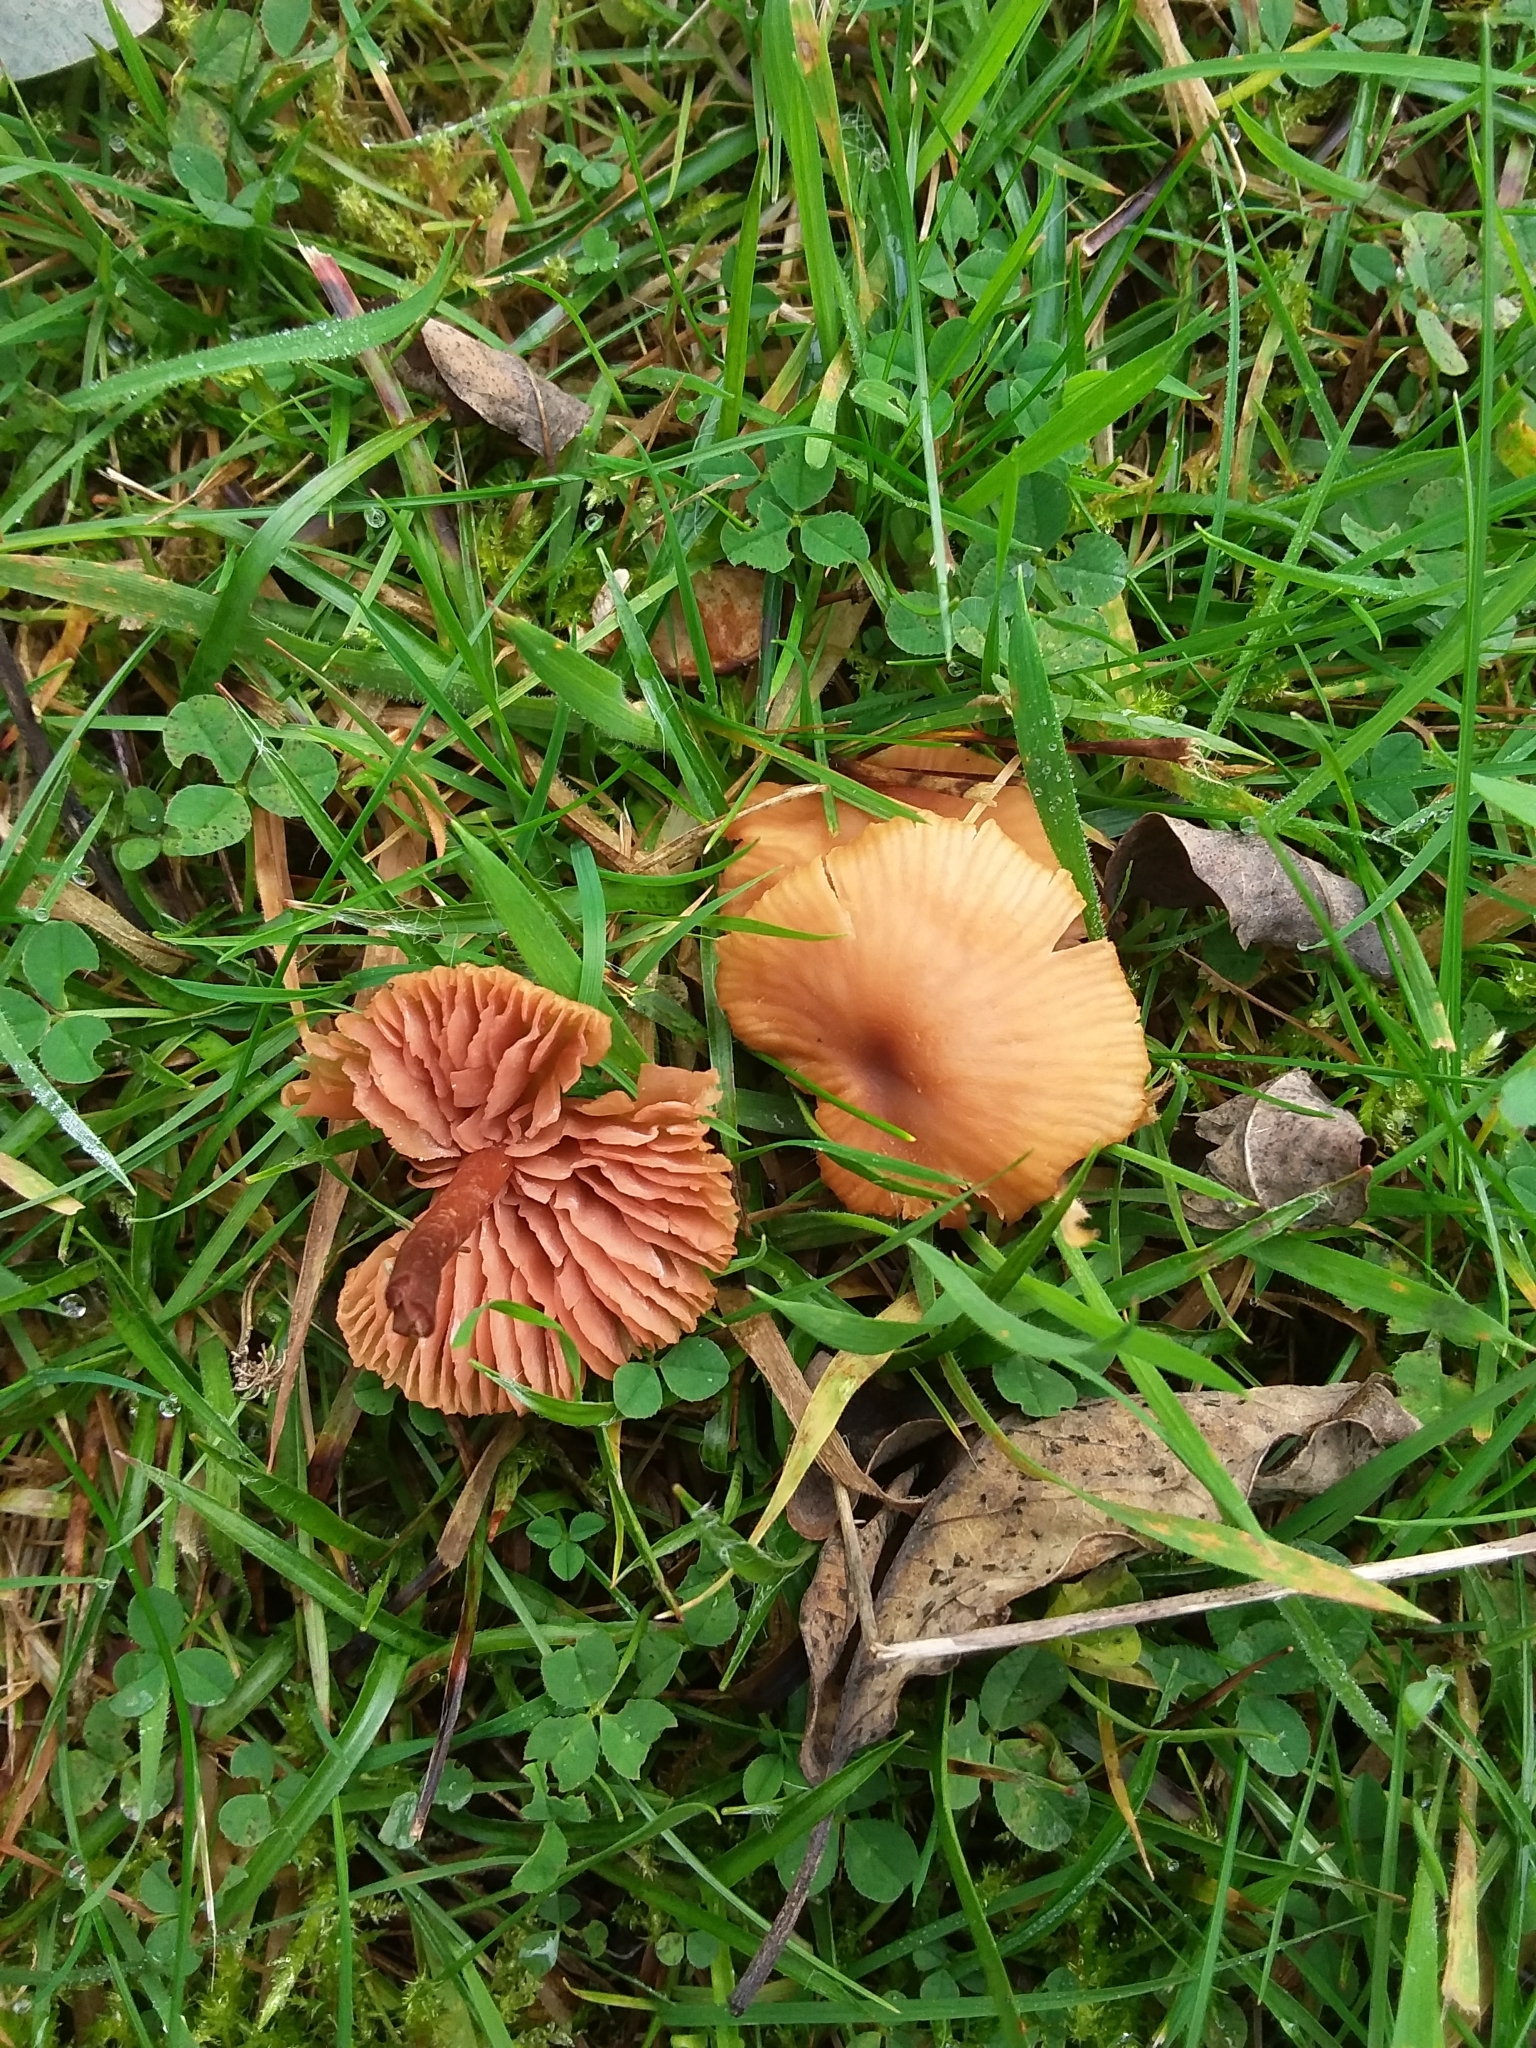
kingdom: Fungi
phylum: Basidiomycota
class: Agaricomycetes
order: Agaricales
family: Hydnangiaceae
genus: Laccaria
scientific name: Laccaria laccata
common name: Deceiver
